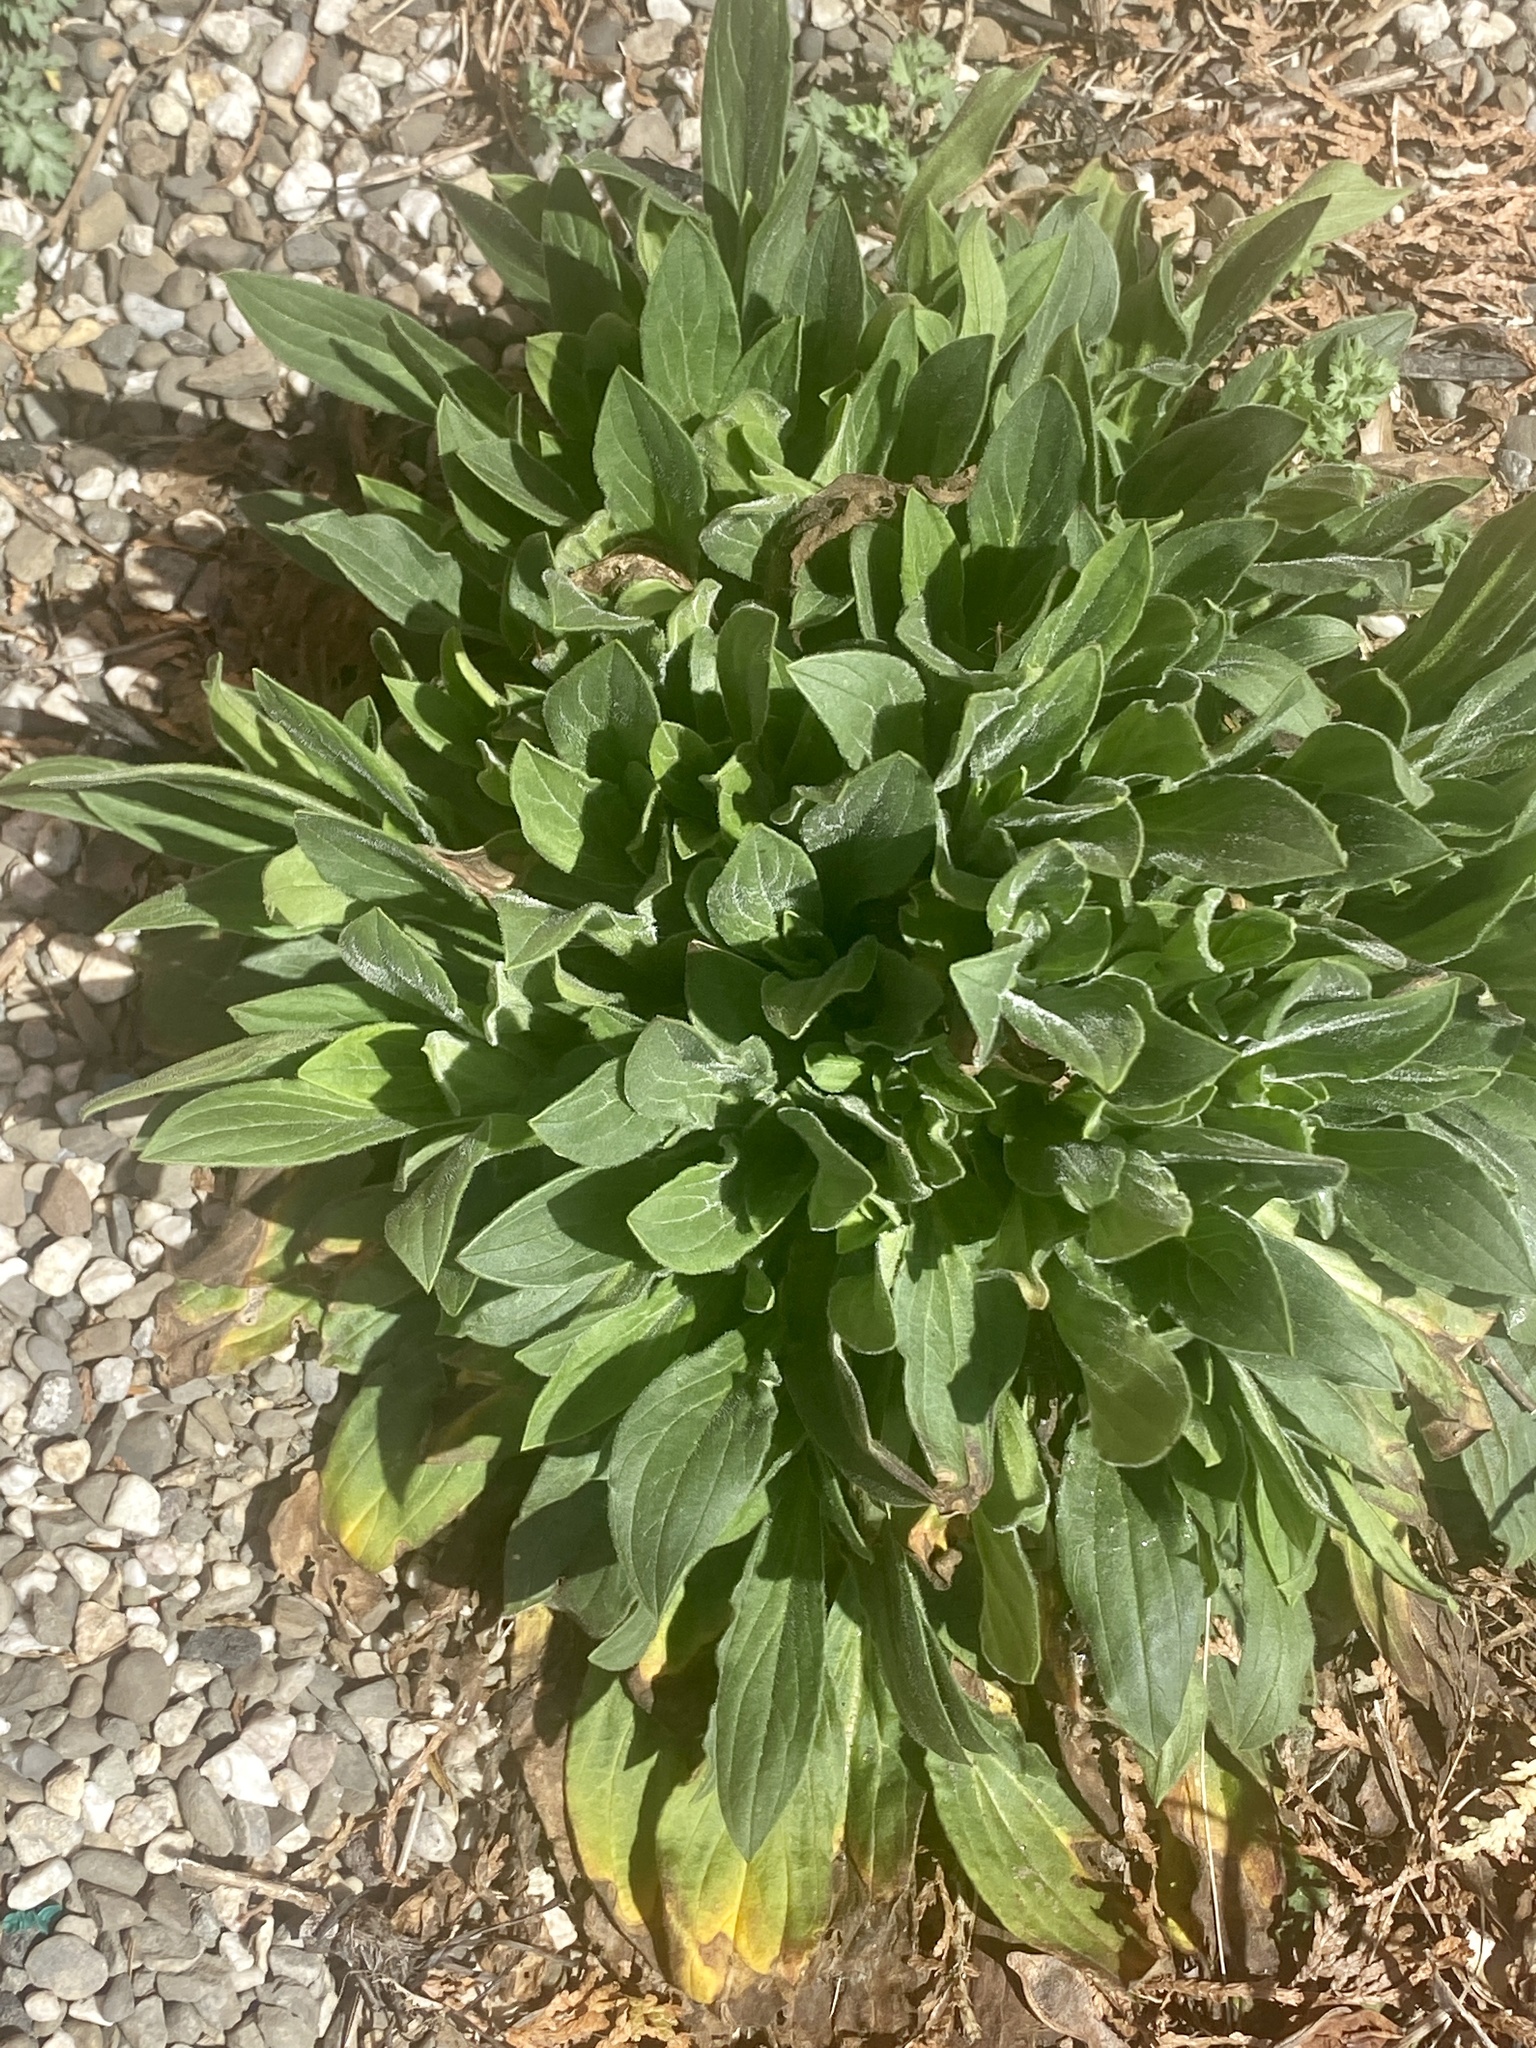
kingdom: Plantae
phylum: Tracheophyta
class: Magnoliopsida
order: Caryophyllales
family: Caryophyllaceae
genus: Silene
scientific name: Silene latifolia
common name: White campion
